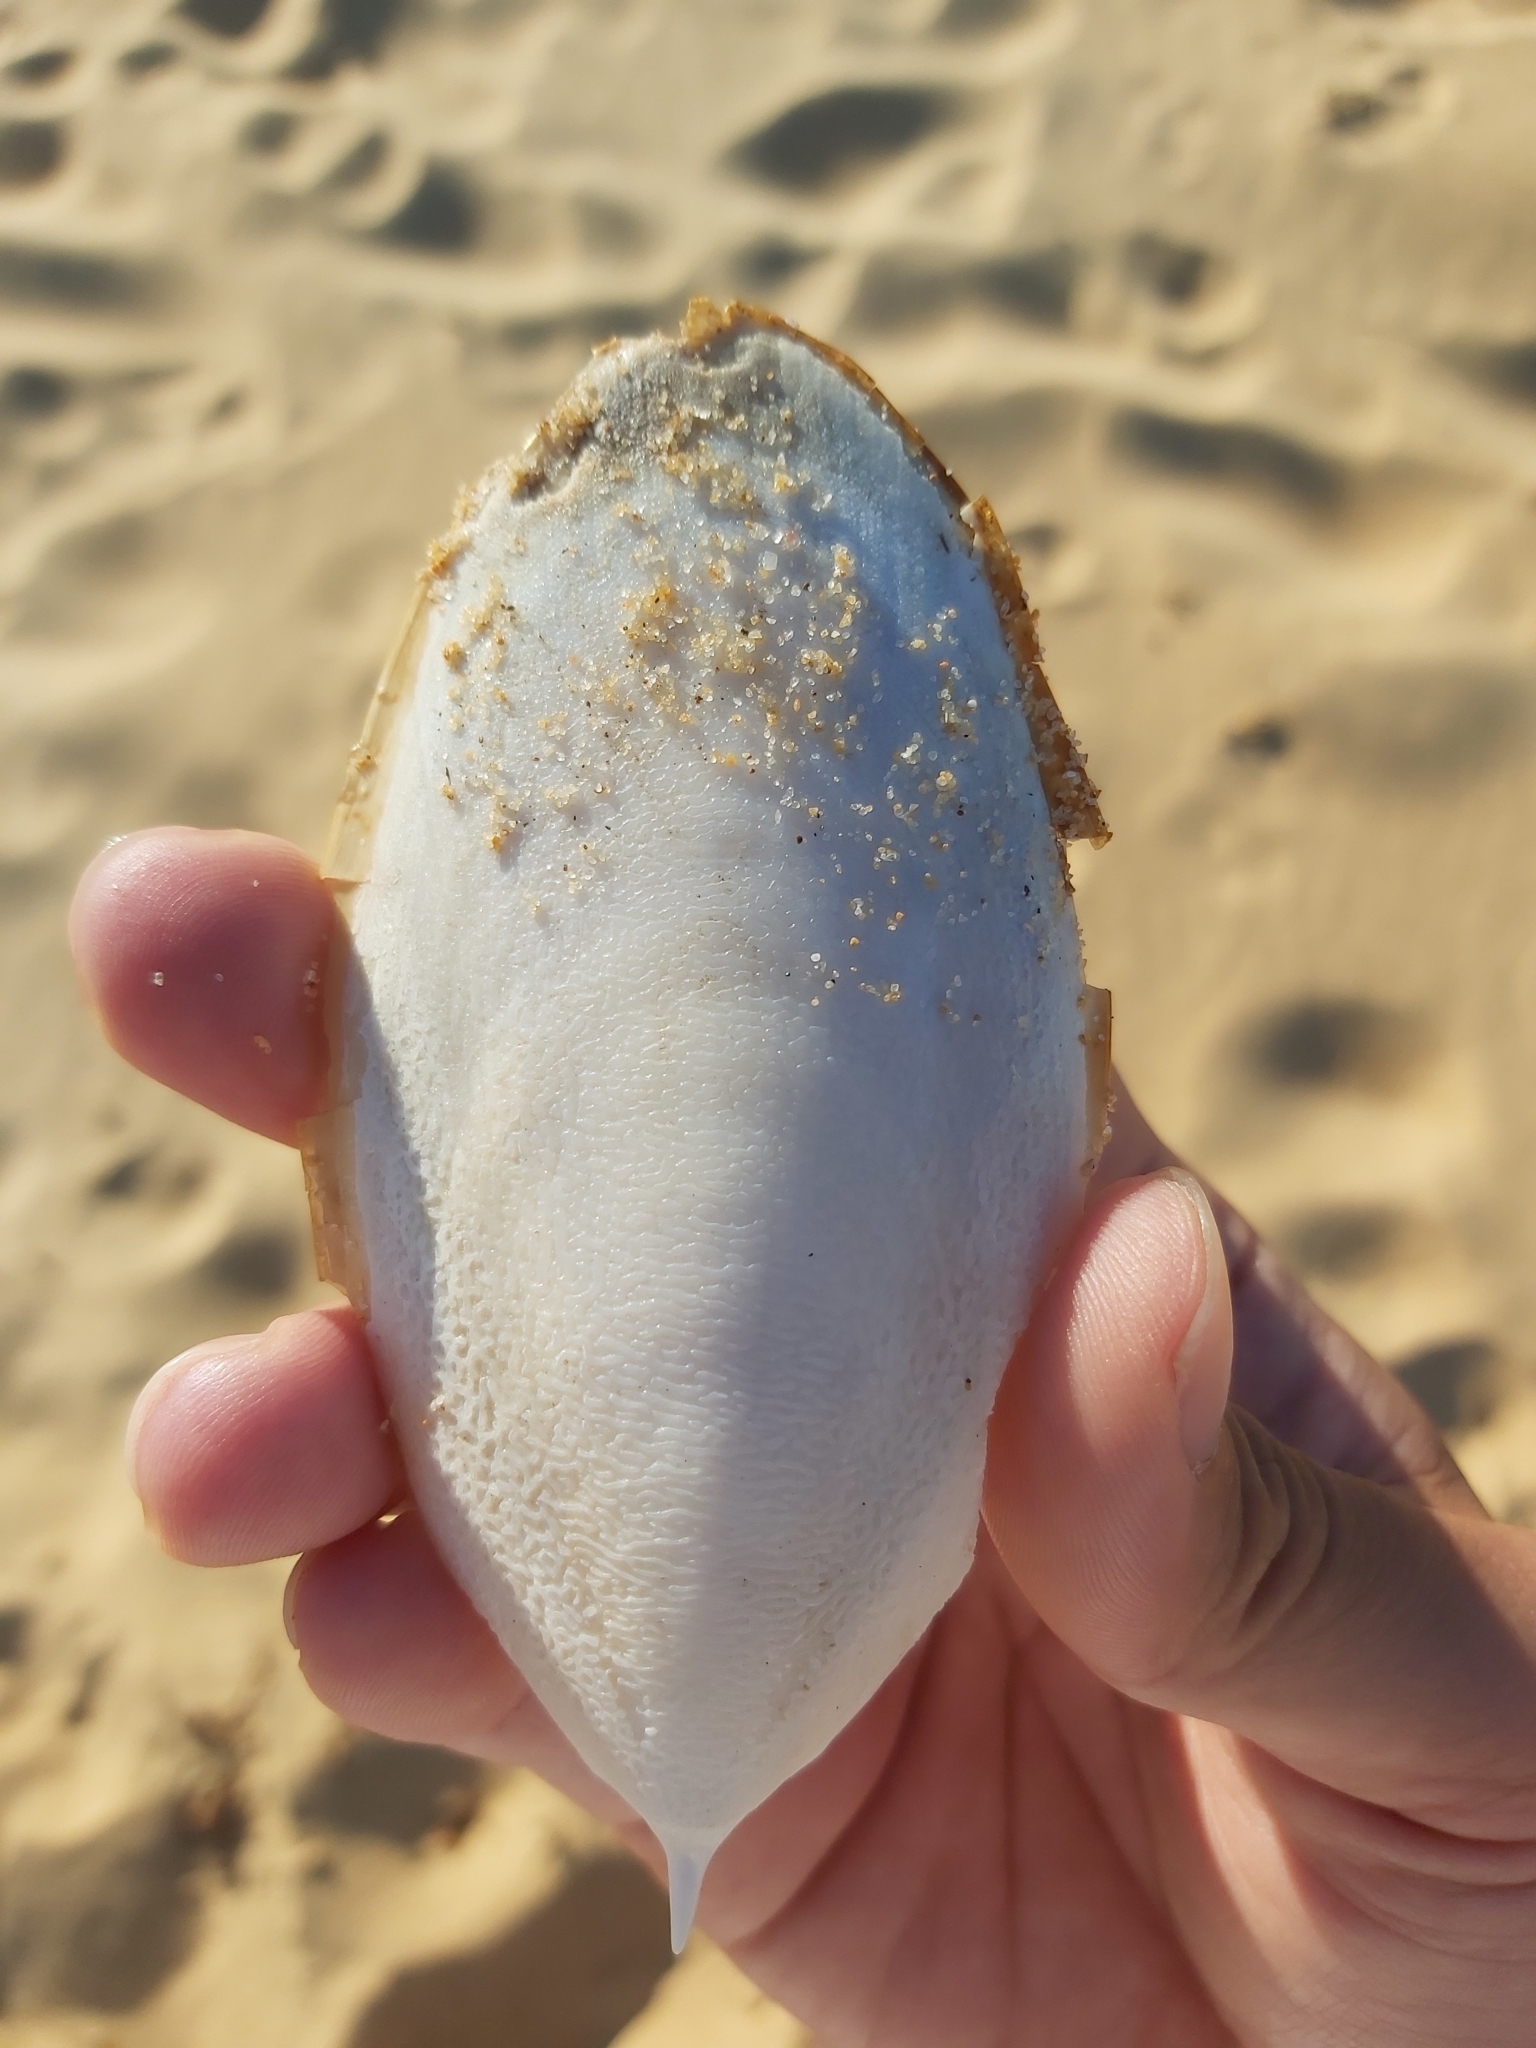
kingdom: Animalia
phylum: Mollusca
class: Cephalopoda
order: Sepiida
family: Sepiidae
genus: Ascarosepion
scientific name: Ascarosepion mestus
